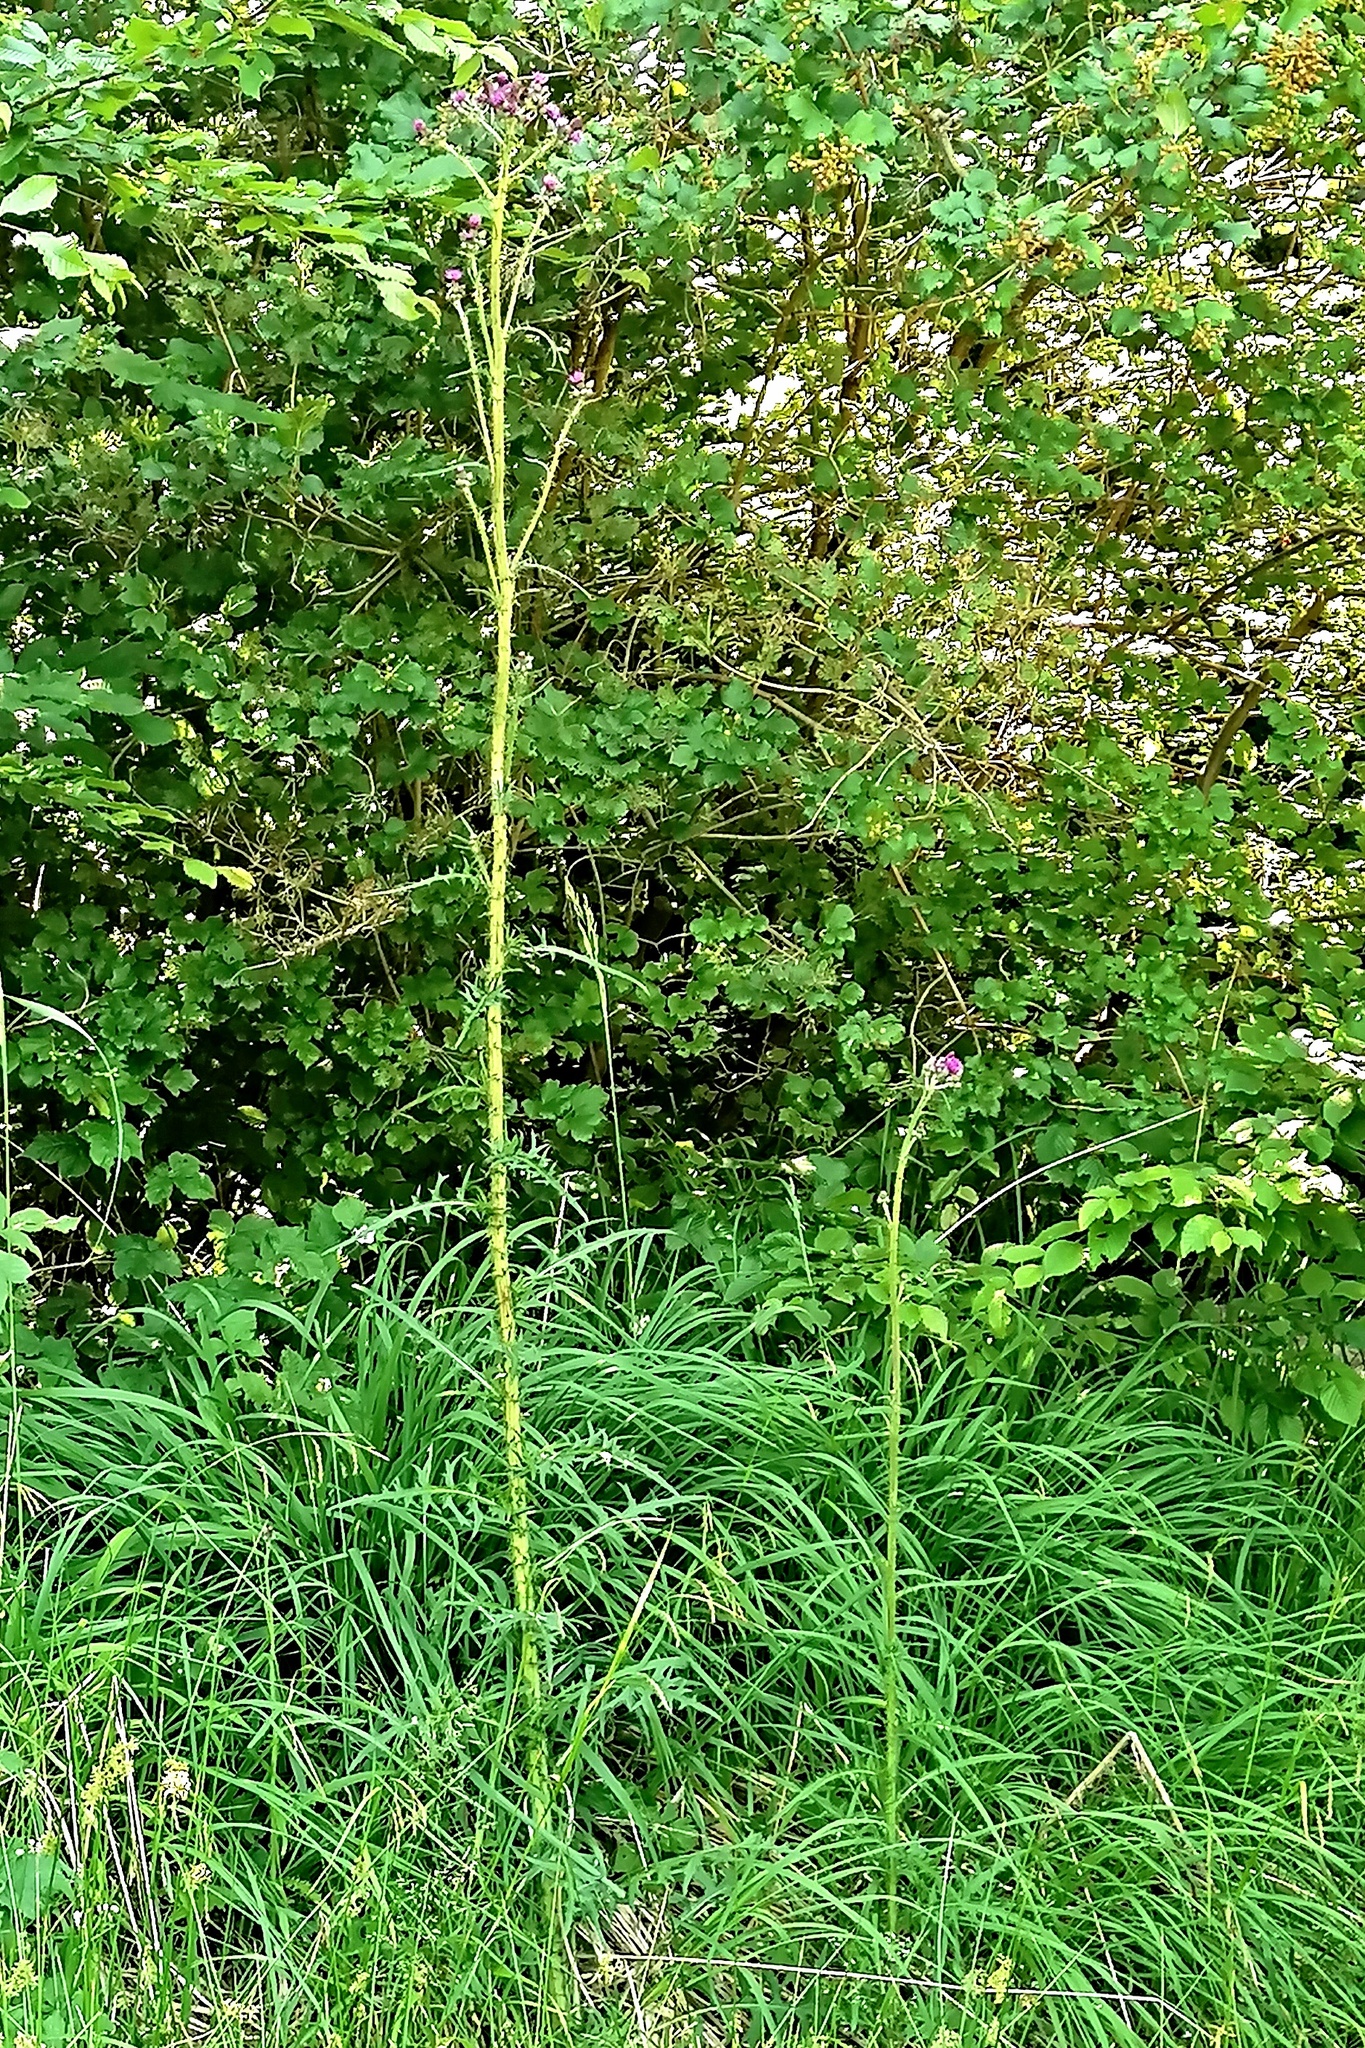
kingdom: Plantae
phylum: Tracheophyta
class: Magnoliopsida
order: Asterales
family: Asteraceae
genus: Cirsium
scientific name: Cirsium palustre
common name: Marsh thistle
